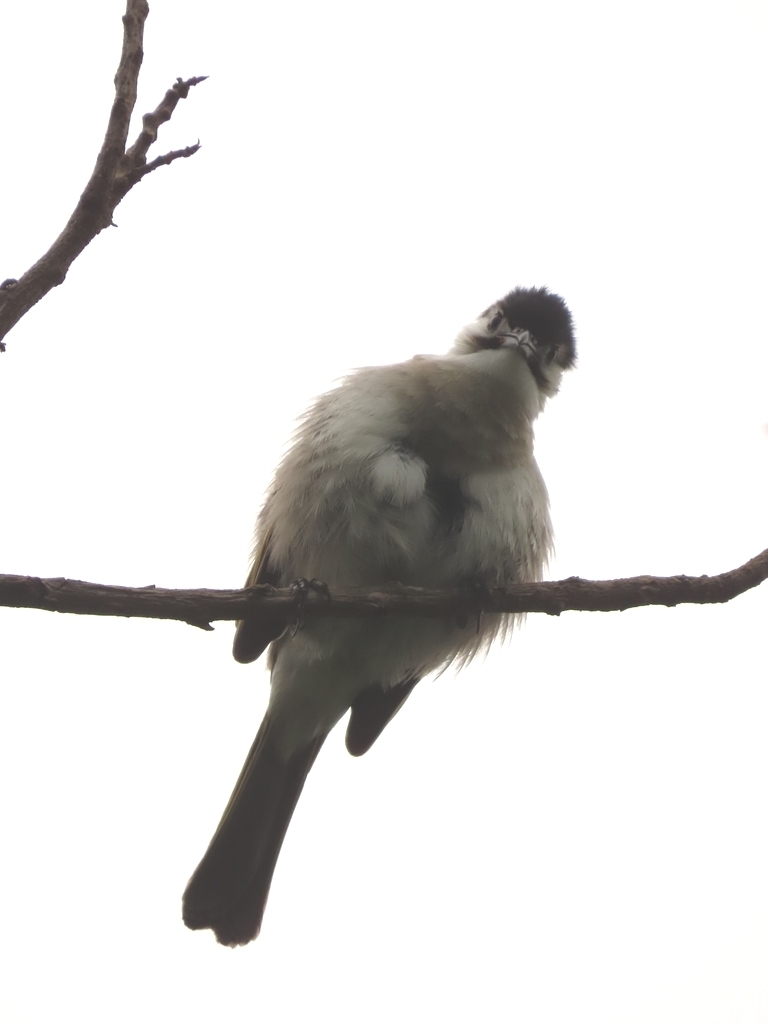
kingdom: Animalia
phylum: Chordata
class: Aves
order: Passeriformes
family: Pycnonotidae
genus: Pycnonotus
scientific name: Pycnonotus taivanus
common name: Styan's bulbul
